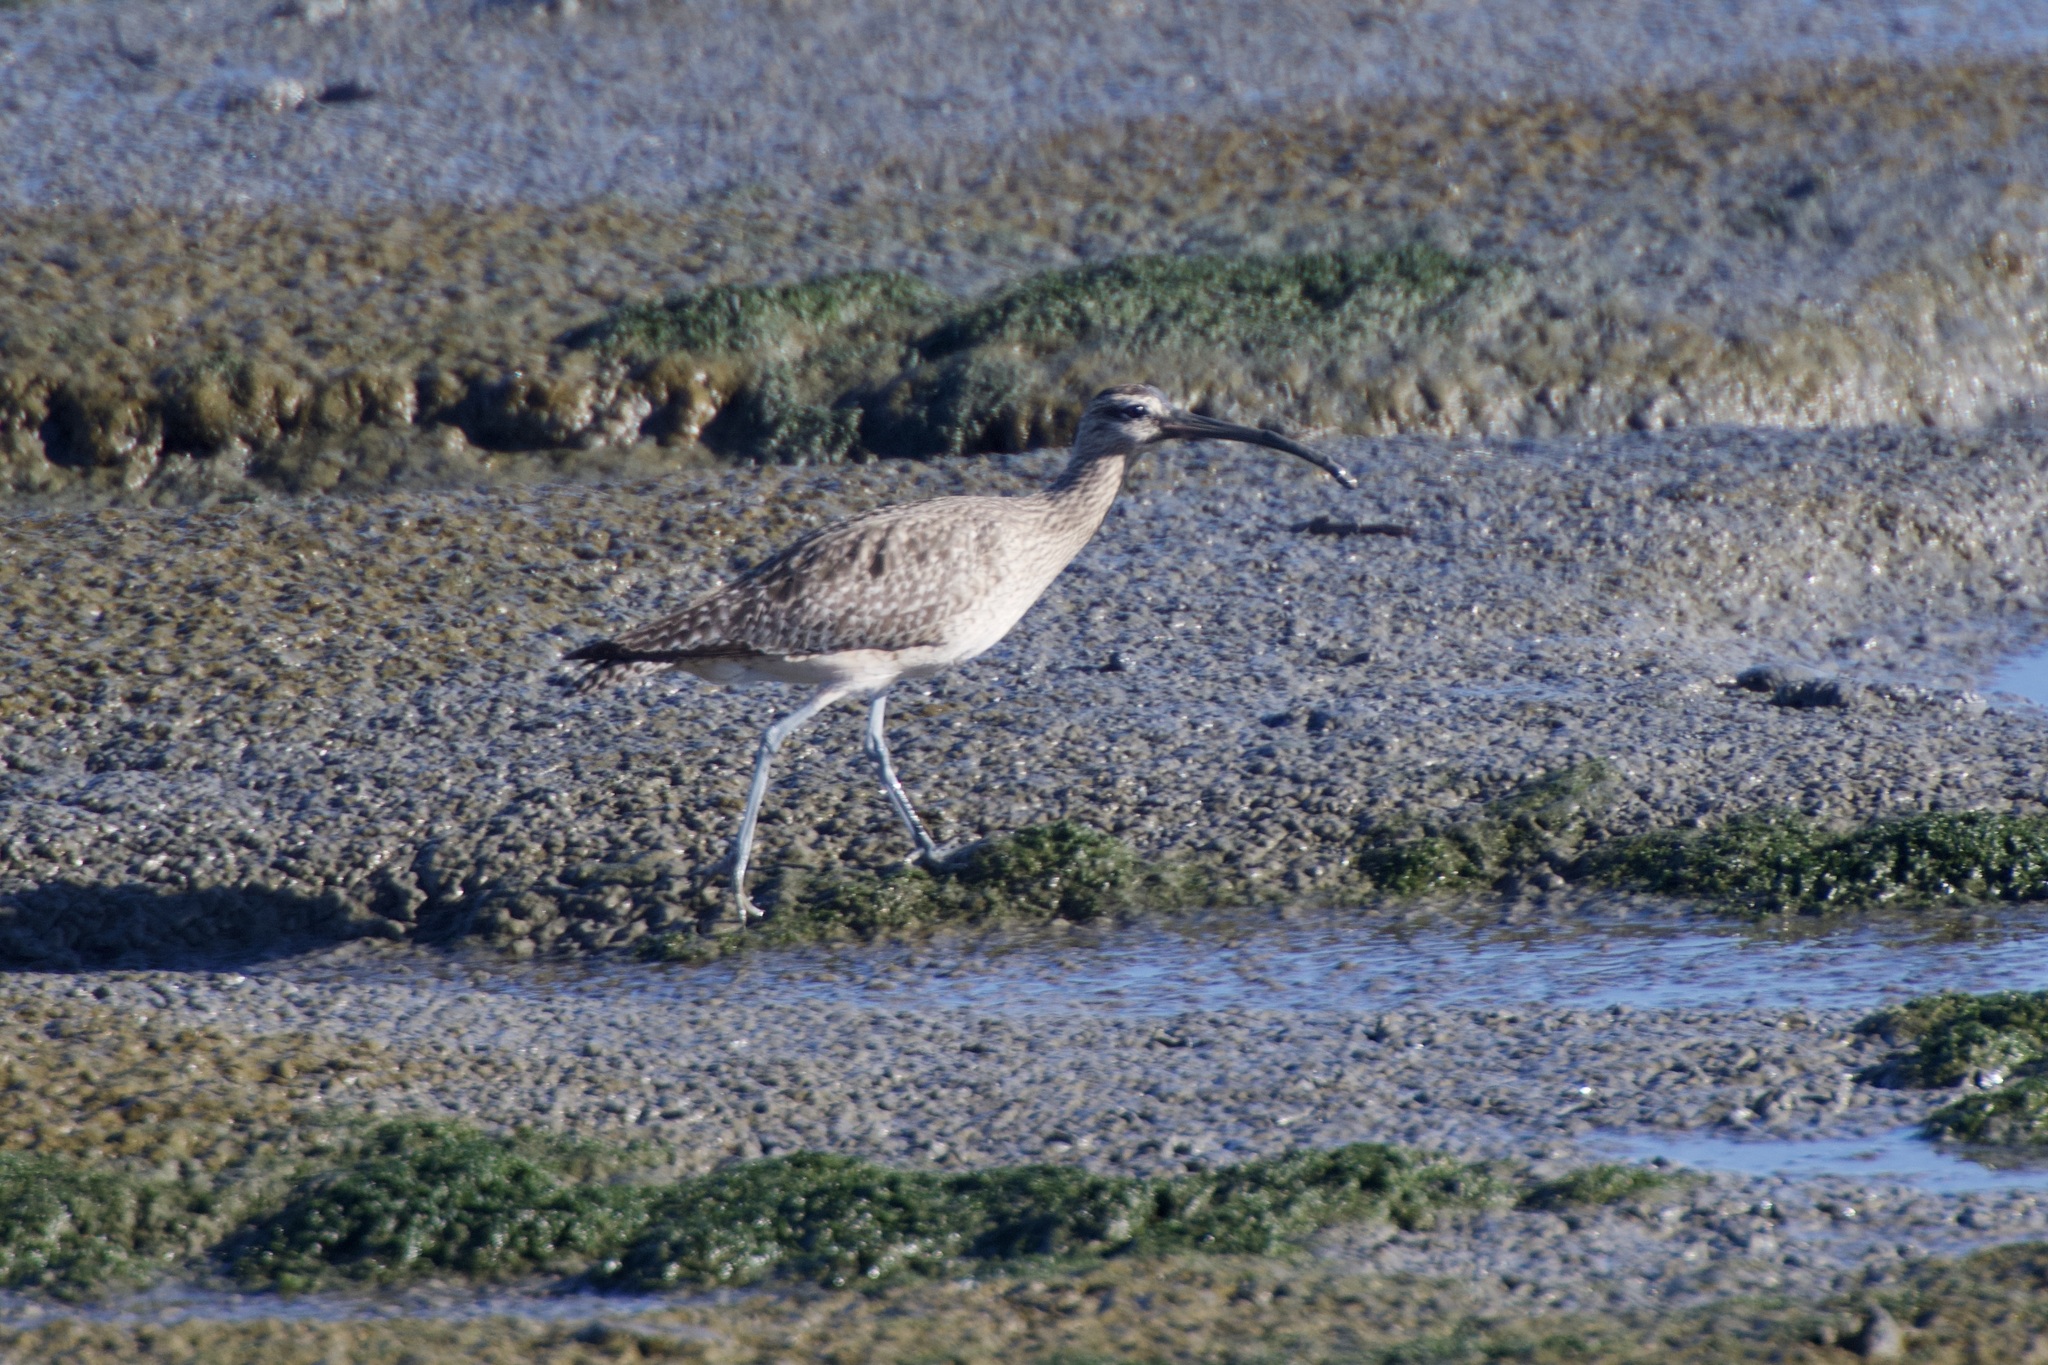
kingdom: Animalia
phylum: Chordata
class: Aves
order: Charadriiformes
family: Scolopacidae
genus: Numenius
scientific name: Numenius phaeopus
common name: Whimbrel
